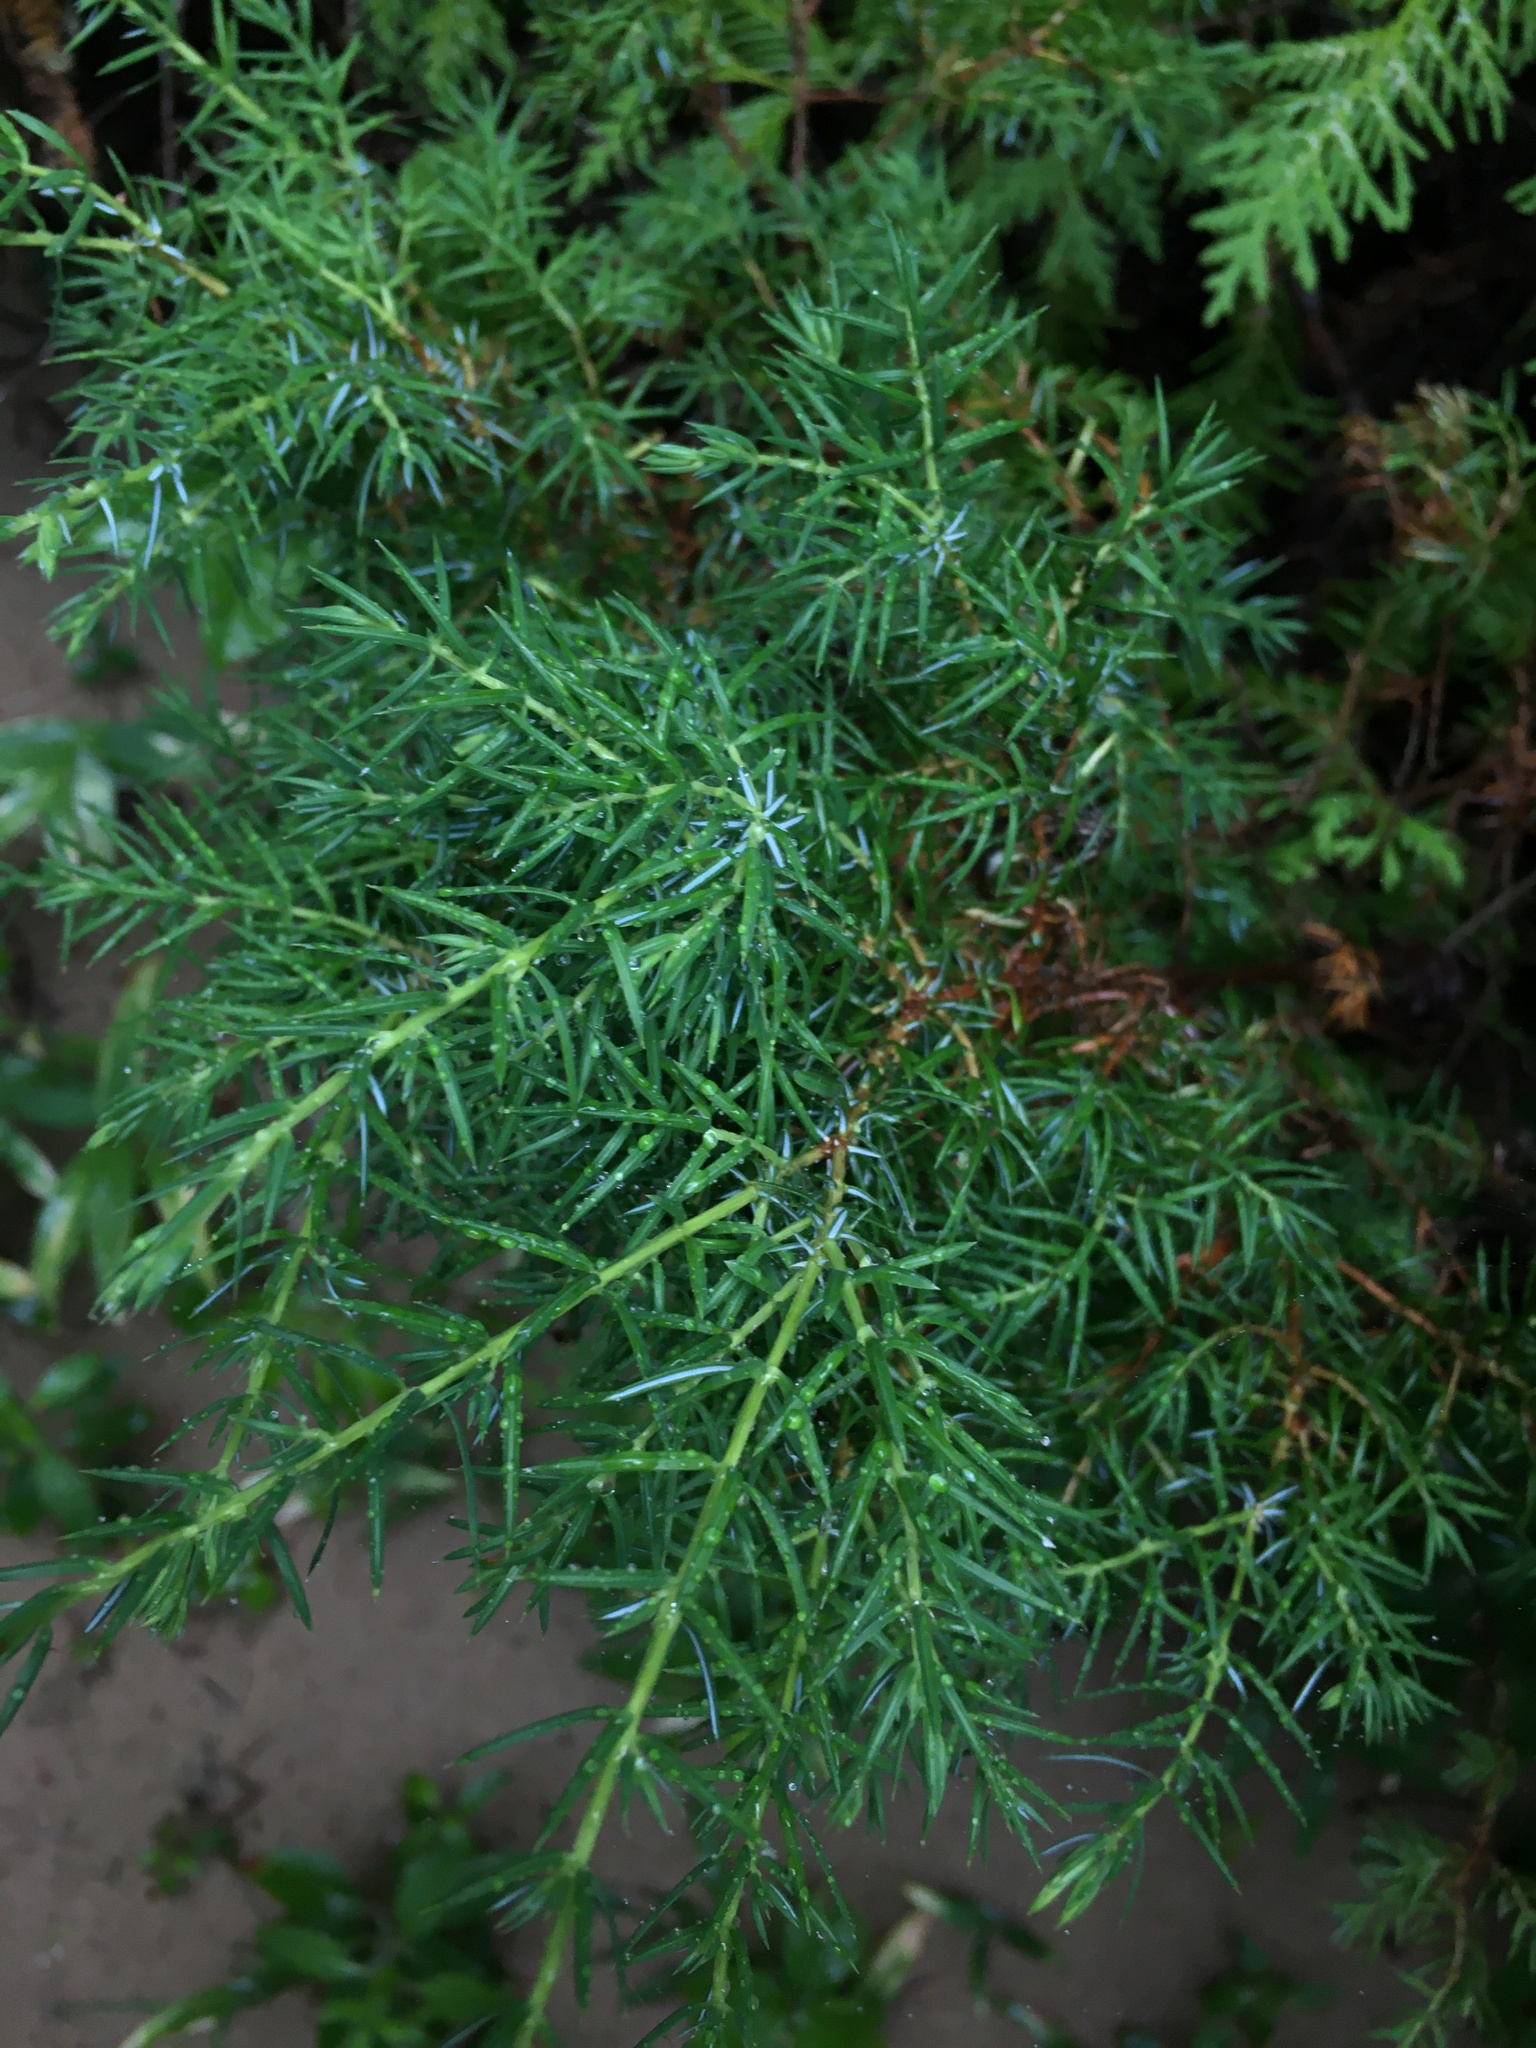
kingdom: Plantae
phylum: Tracheophyta
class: Pinopsida
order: Pinales
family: Cupressaceae
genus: Juniperus
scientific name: Juniperus communis
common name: Common juniper
